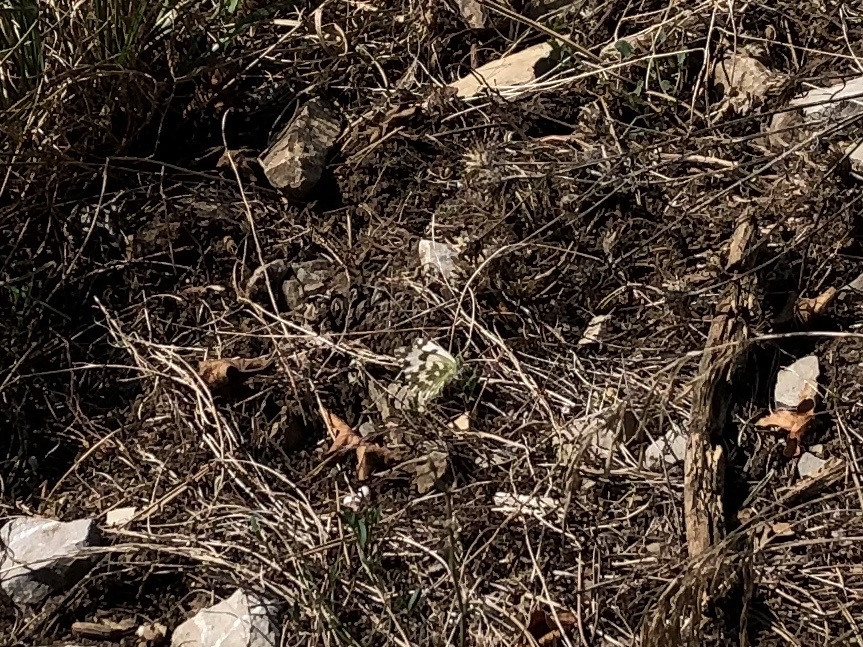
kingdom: Animalia
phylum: Arthropoda
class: Insecta
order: Lepidoptera
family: Pieridae
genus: Pontia
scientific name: Pontia edusa
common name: Eastern bath white
